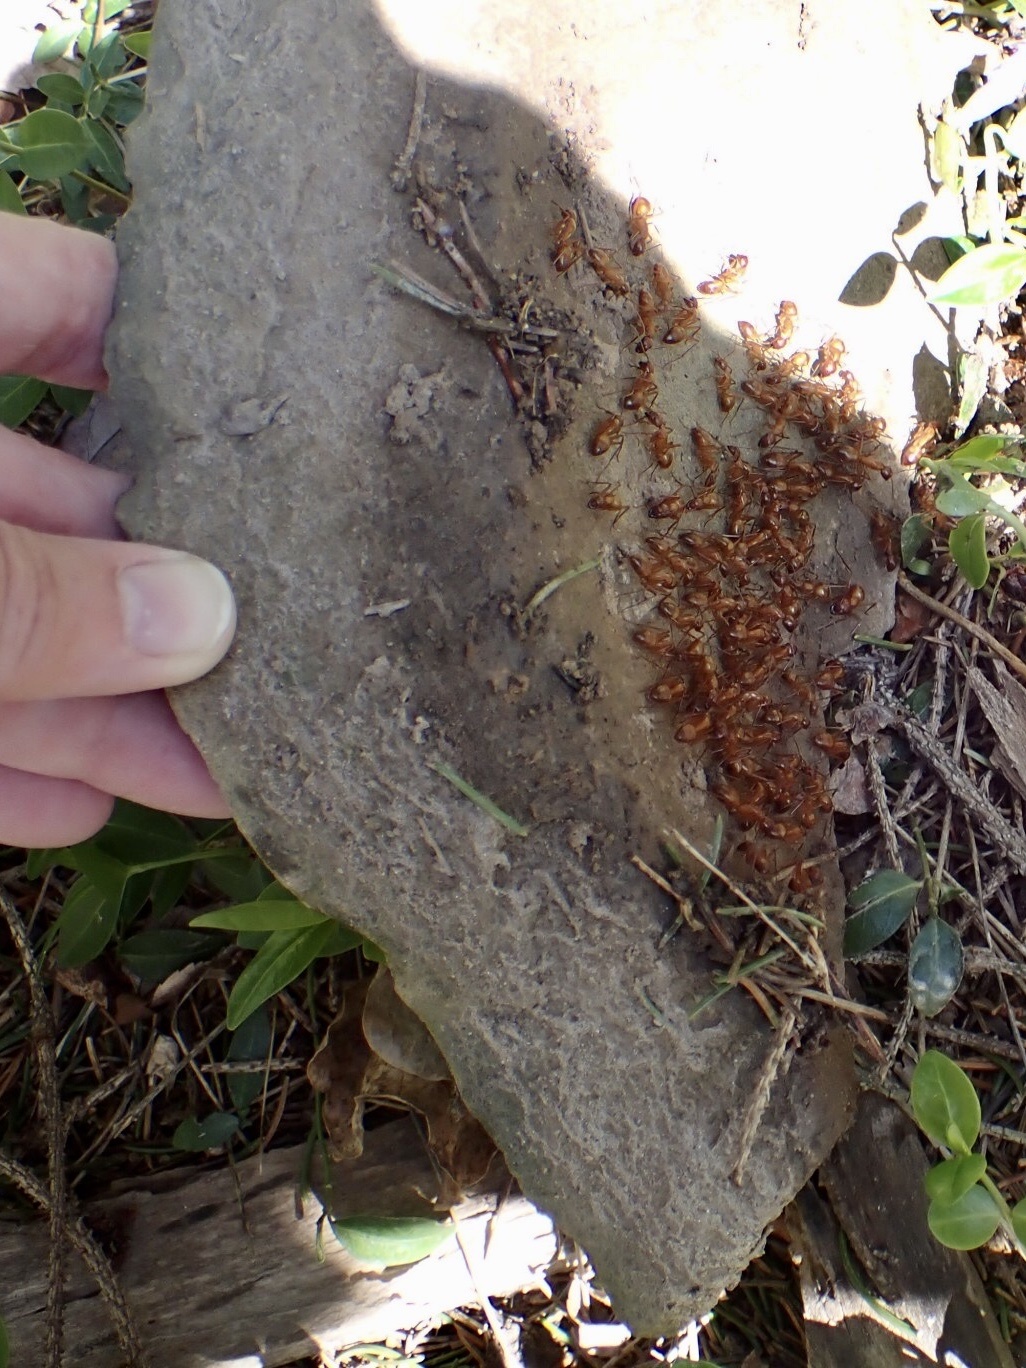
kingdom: Animalia
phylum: Arthropoda
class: Insecta
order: Hymenoptera
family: Formicidae
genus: Camponotus
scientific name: Camponotus castaneus
